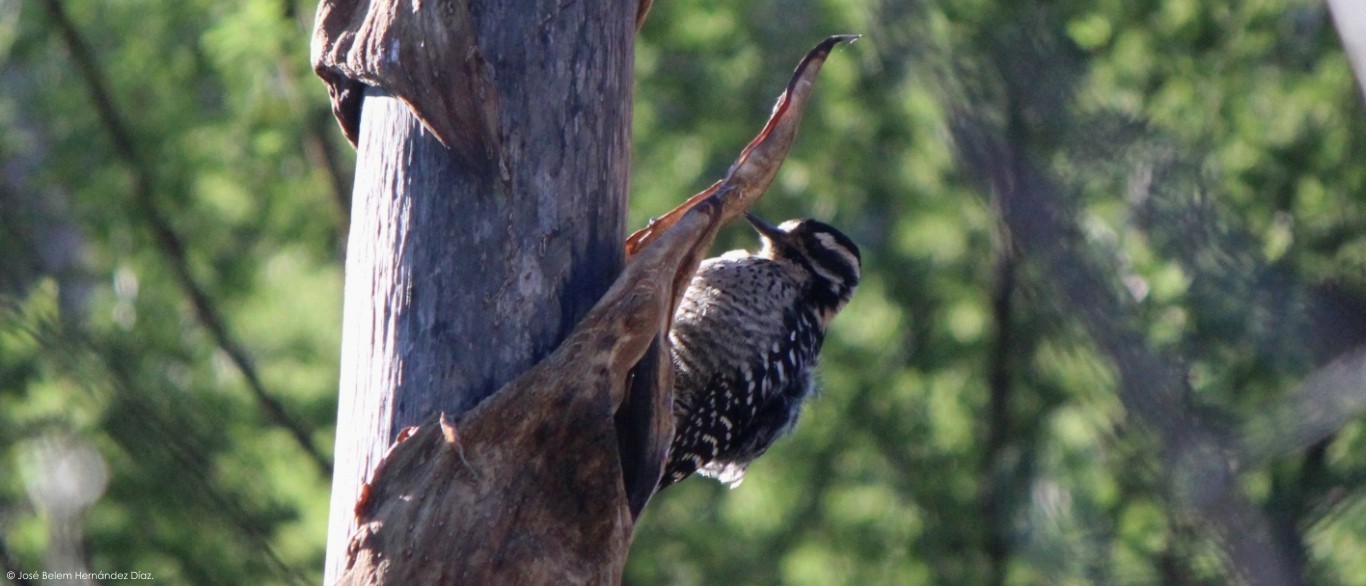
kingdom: Animalia
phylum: Chordata
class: Aves
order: Piciformes
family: Picidae
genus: Dryobates
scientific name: Dryobates scalaris
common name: Ladder-backed woodpecker
